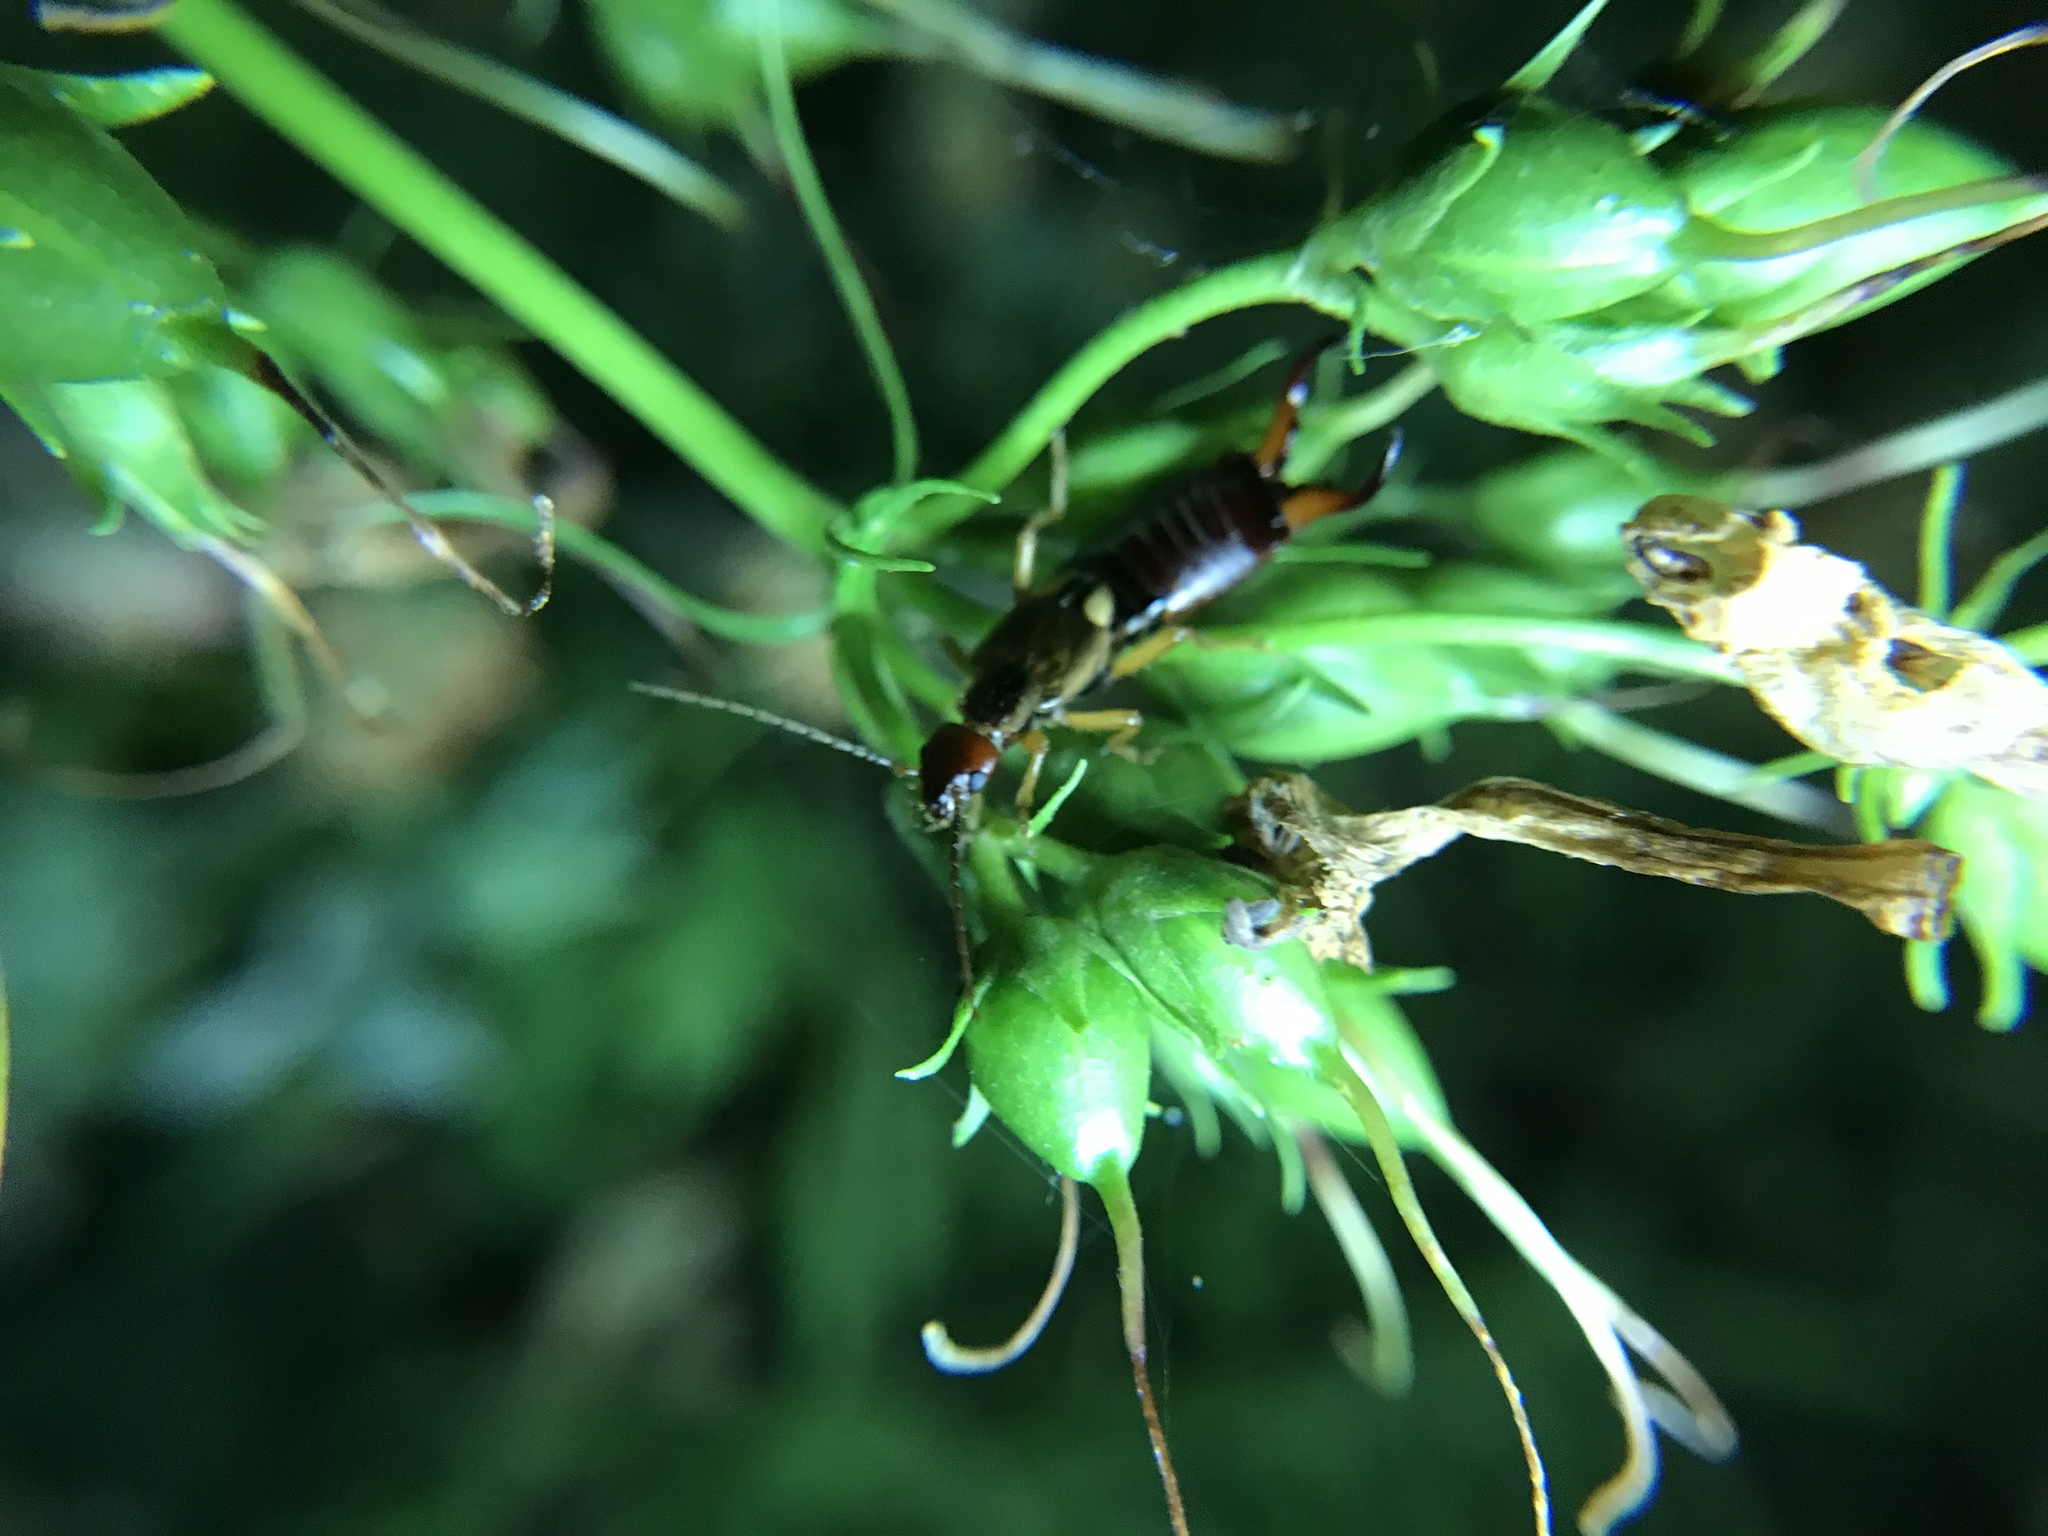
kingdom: Animalia
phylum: Arthropoda
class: Insecta
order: Dermaptera
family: Forficulidae
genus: Forficula
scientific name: Forficula
